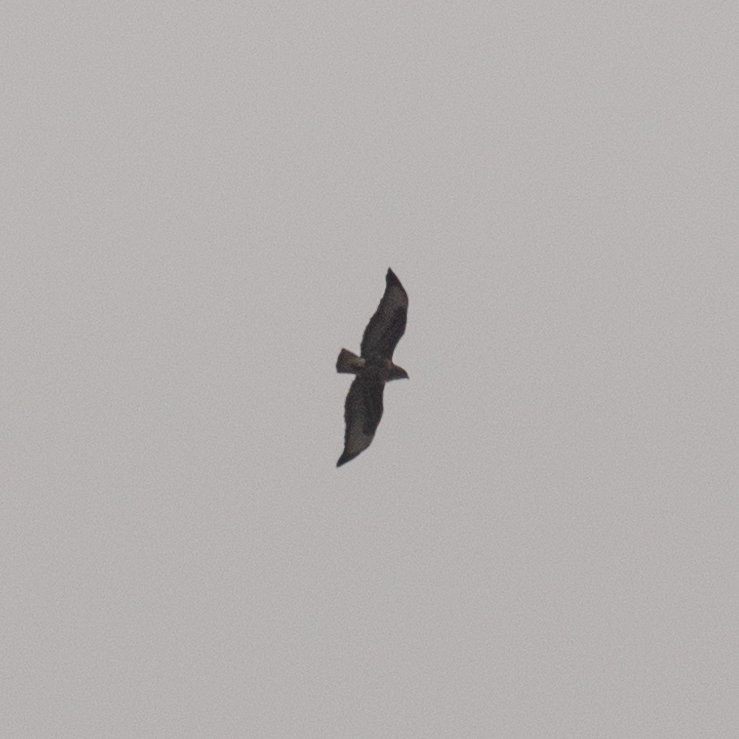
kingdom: Animalia
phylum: Chordata
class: Aves
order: Accipitriformes
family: Accipitridae
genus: Buteo
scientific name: Buteo buteo
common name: Common buzzard
